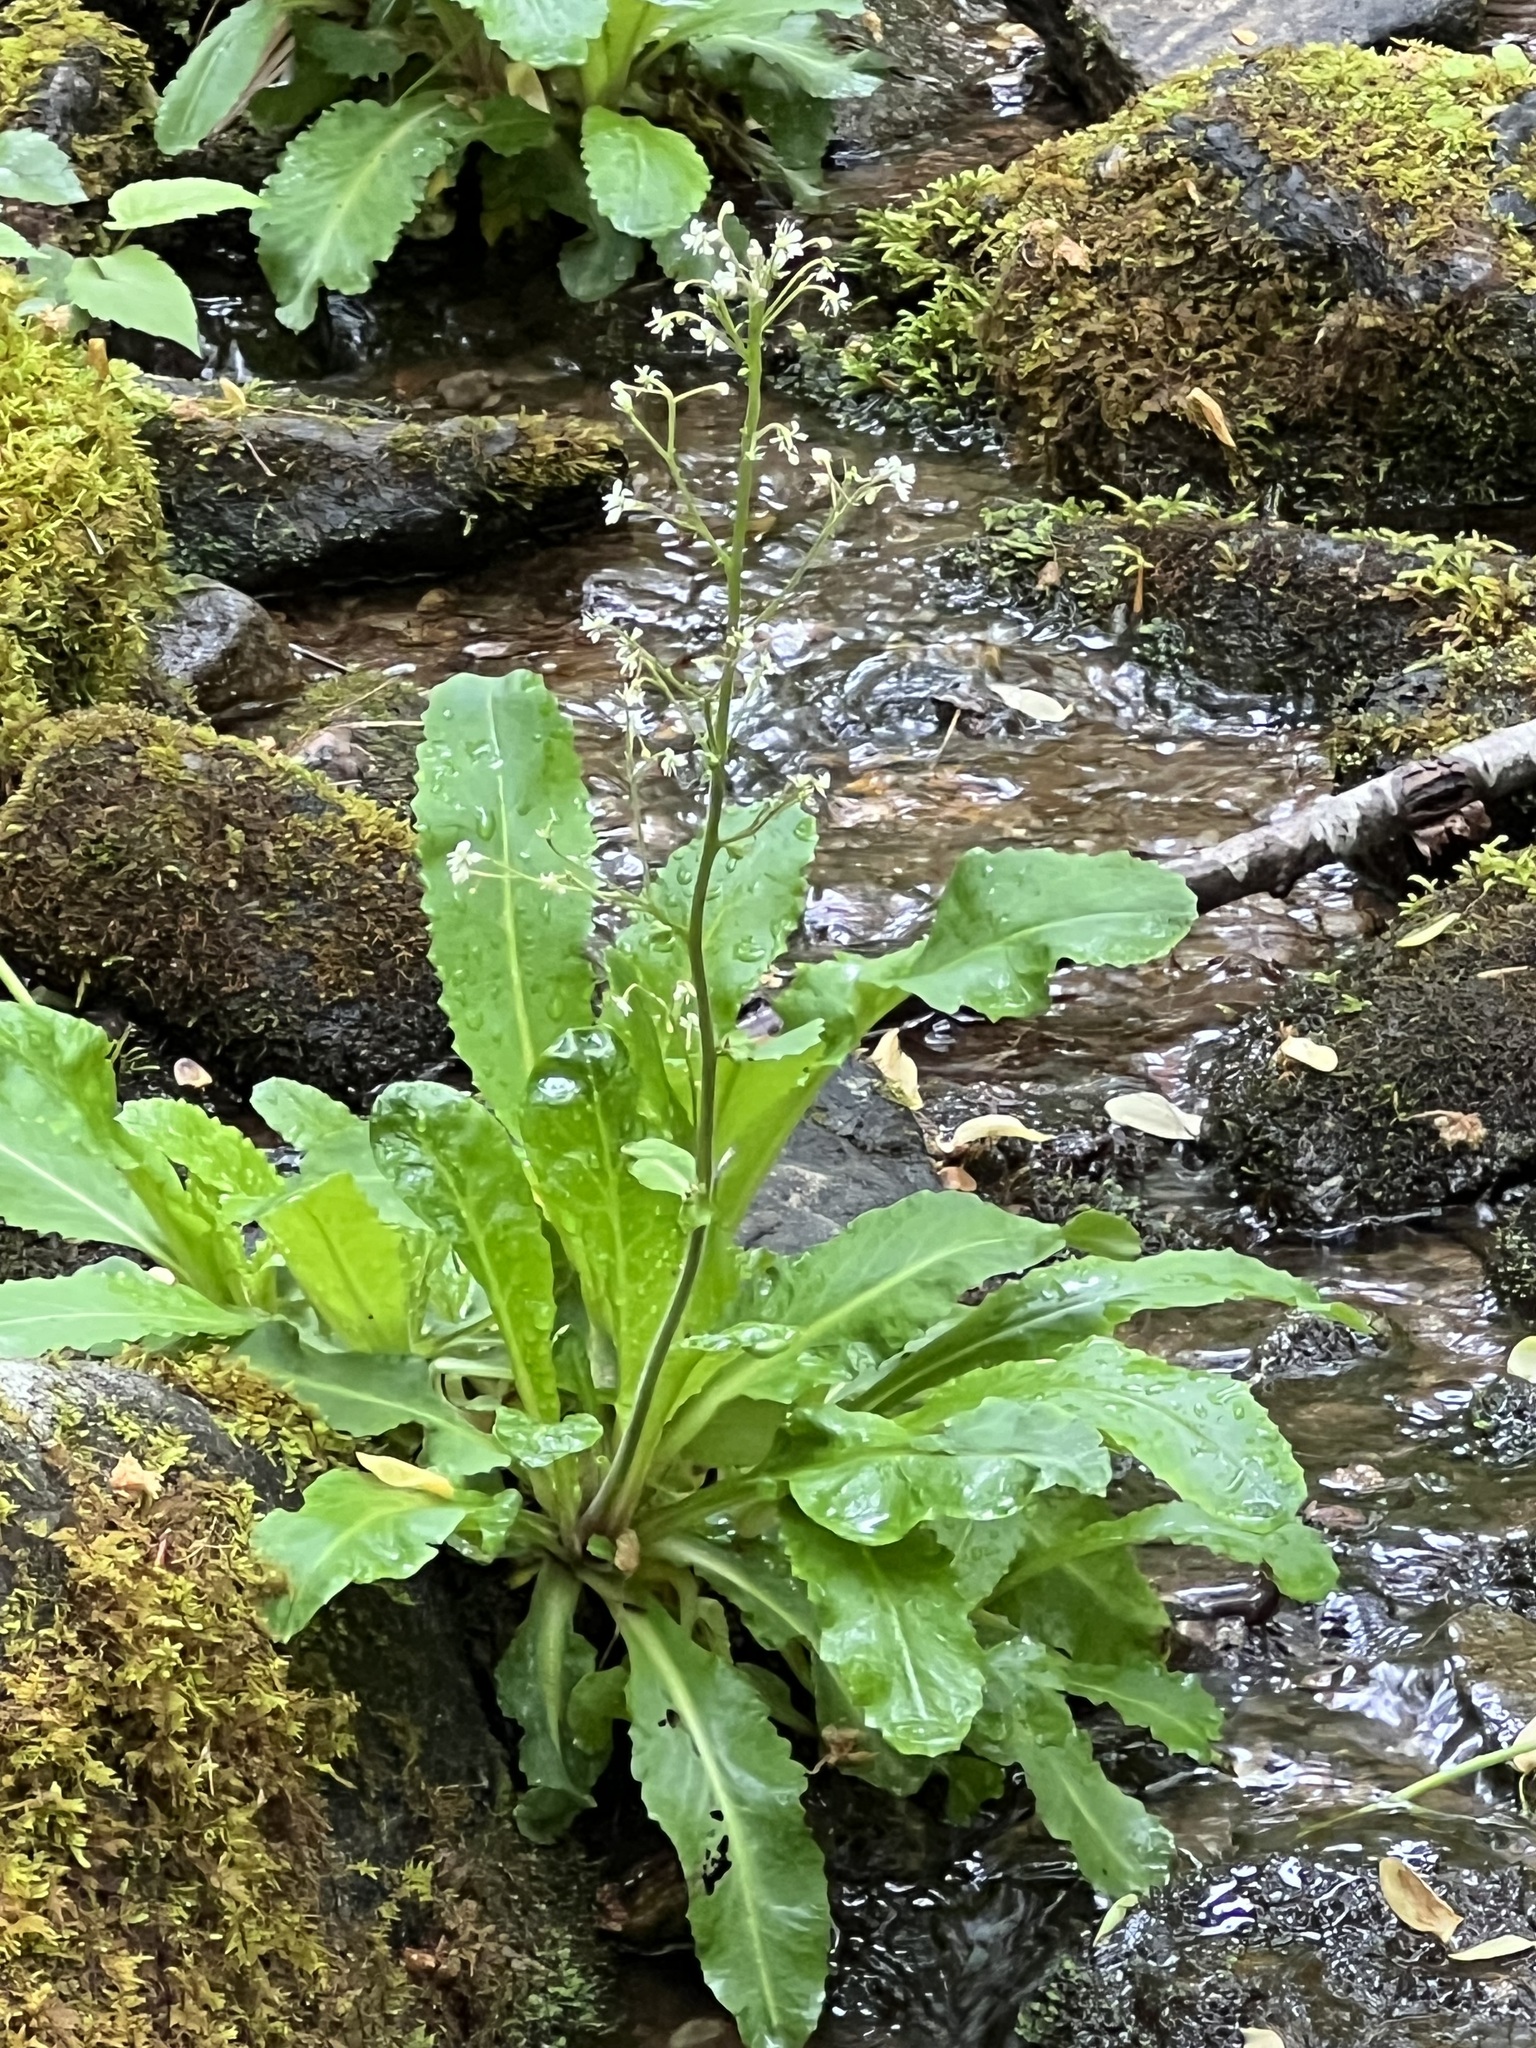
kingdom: Plantae
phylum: Tracheophyta
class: Magnoliopsida
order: Saxifragales
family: Saxifragaceae
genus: Micranthes
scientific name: Micranthes micranthidifolia
